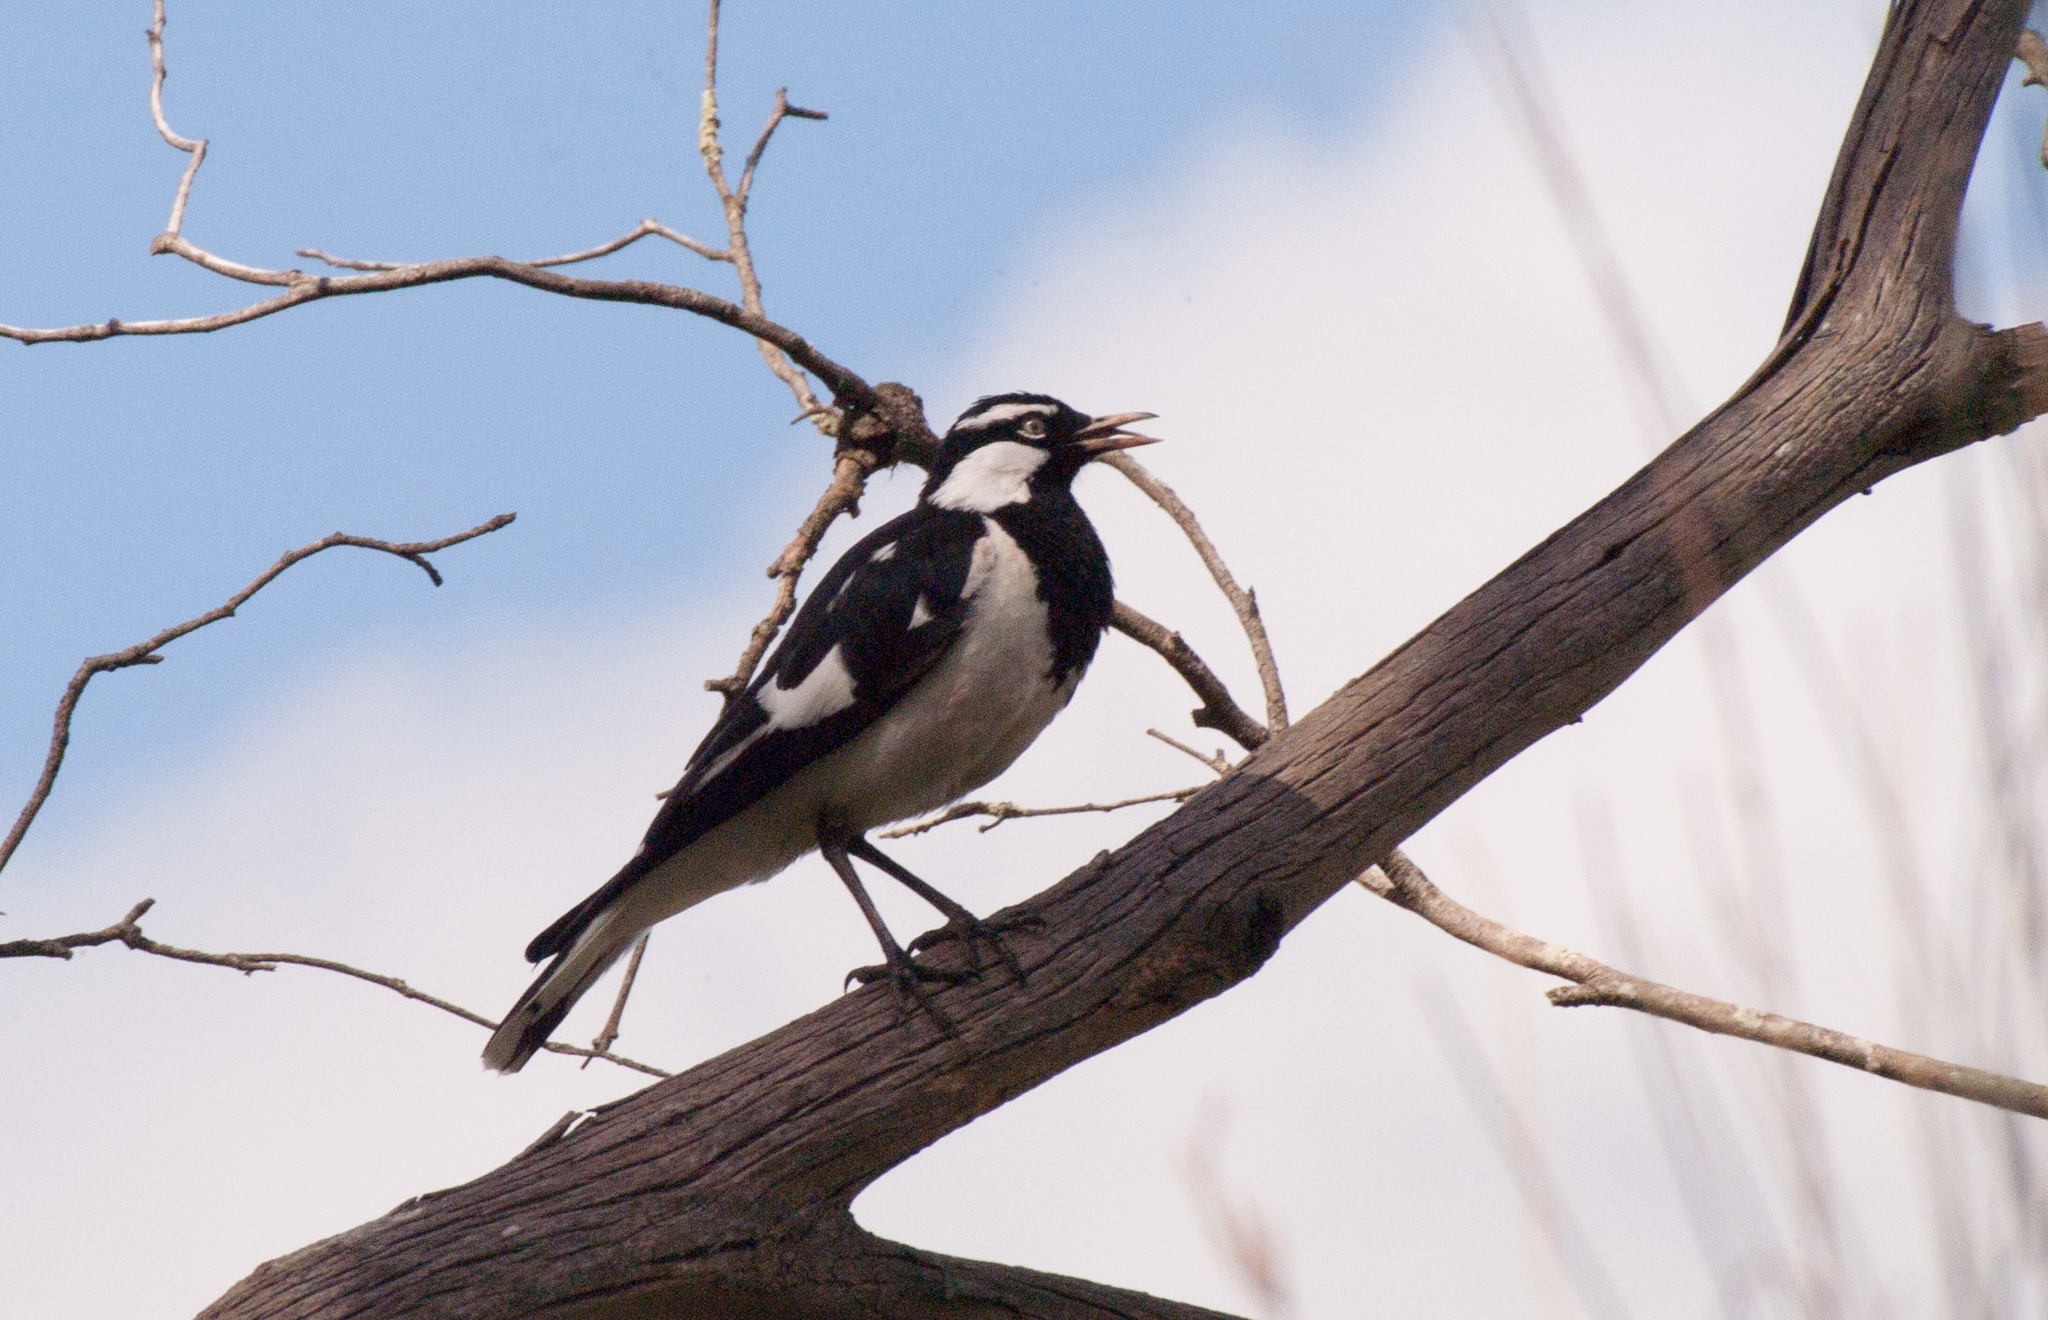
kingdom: Animalia
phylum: Chordata
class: Aves
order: Passeriformes
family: Monarchidae
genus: Grallina
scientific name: Grallina cyanoleuca
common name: Magpie-lark
